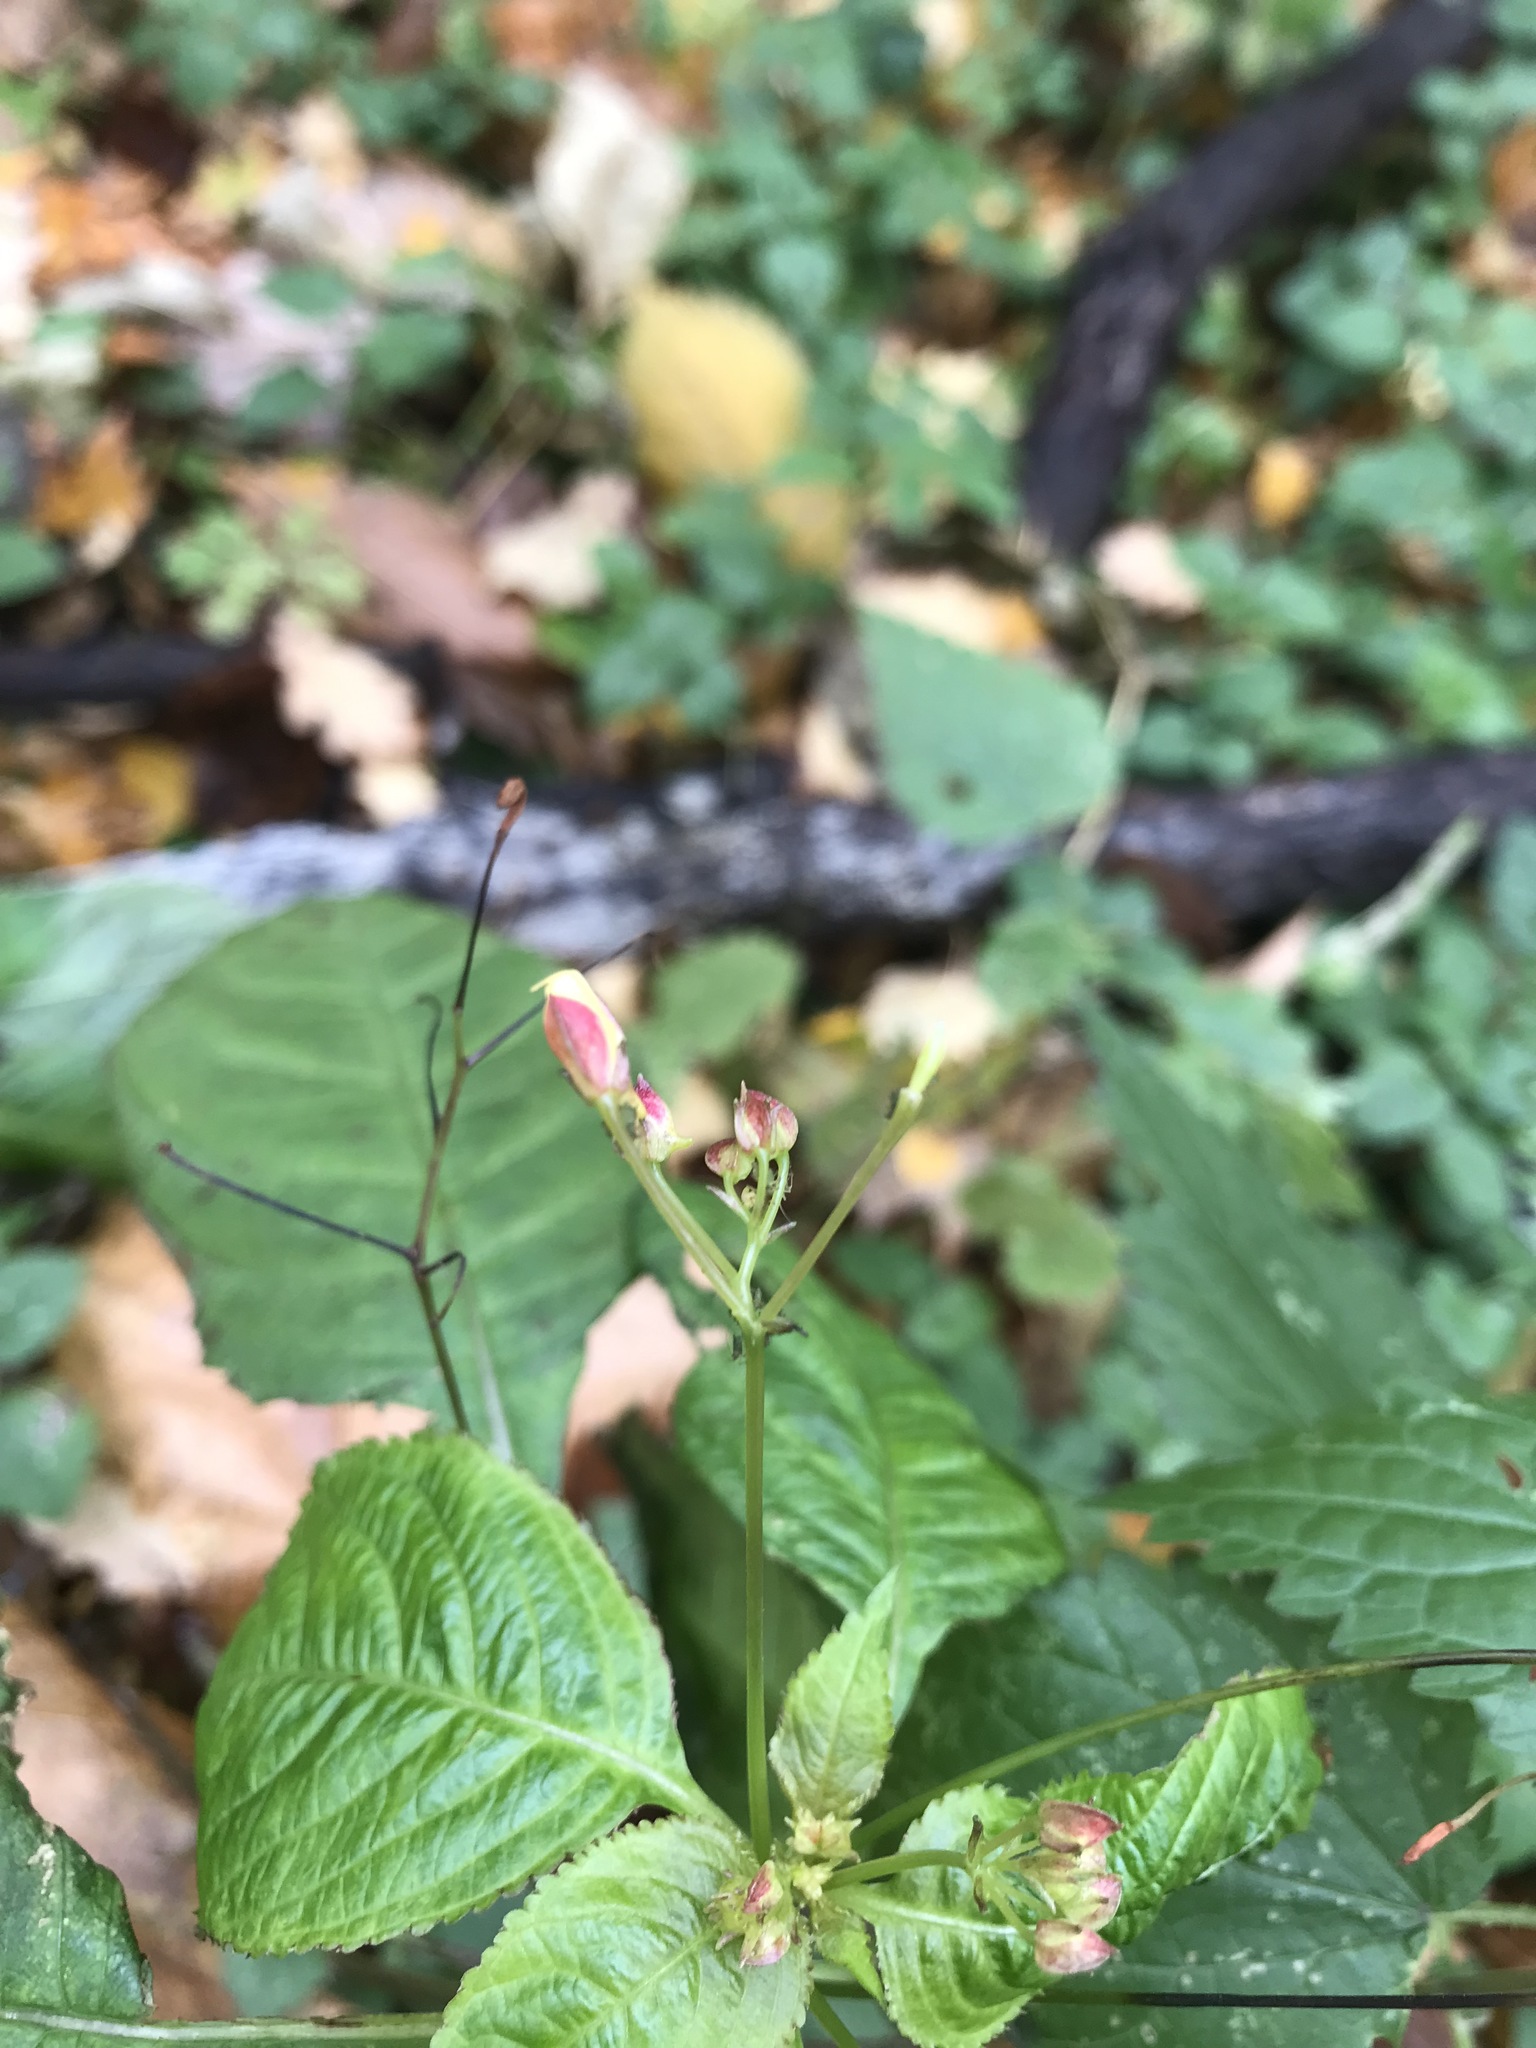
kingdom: Plantae
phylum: Tracheophyta
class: Magnoliopsida
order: Ericales
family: Balsaminaceae
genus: Impatiens
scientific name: Impatiens parviflora
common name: Small balsam
